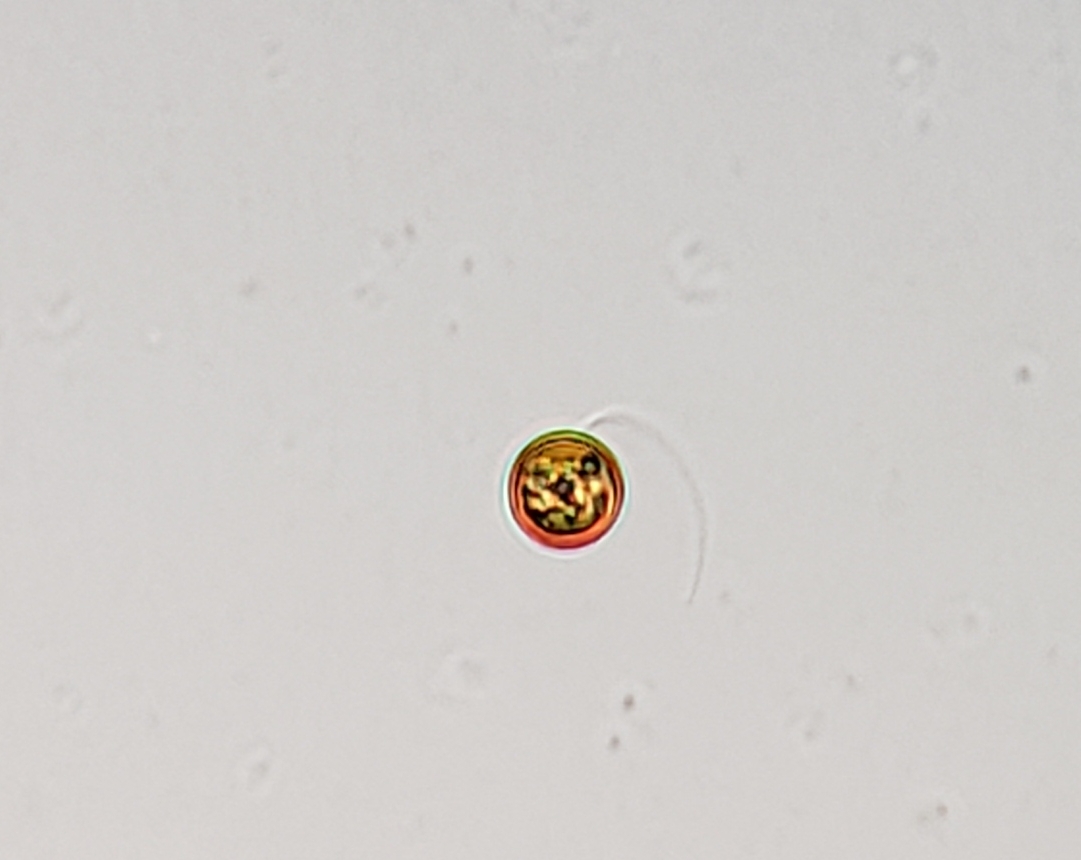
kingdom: Protozoa
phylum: Euglenozoa
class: Euglenoidea
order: Euglenida
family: Euglenaceae
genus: Trachelomonas
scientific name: Trachelomonas volvocina
